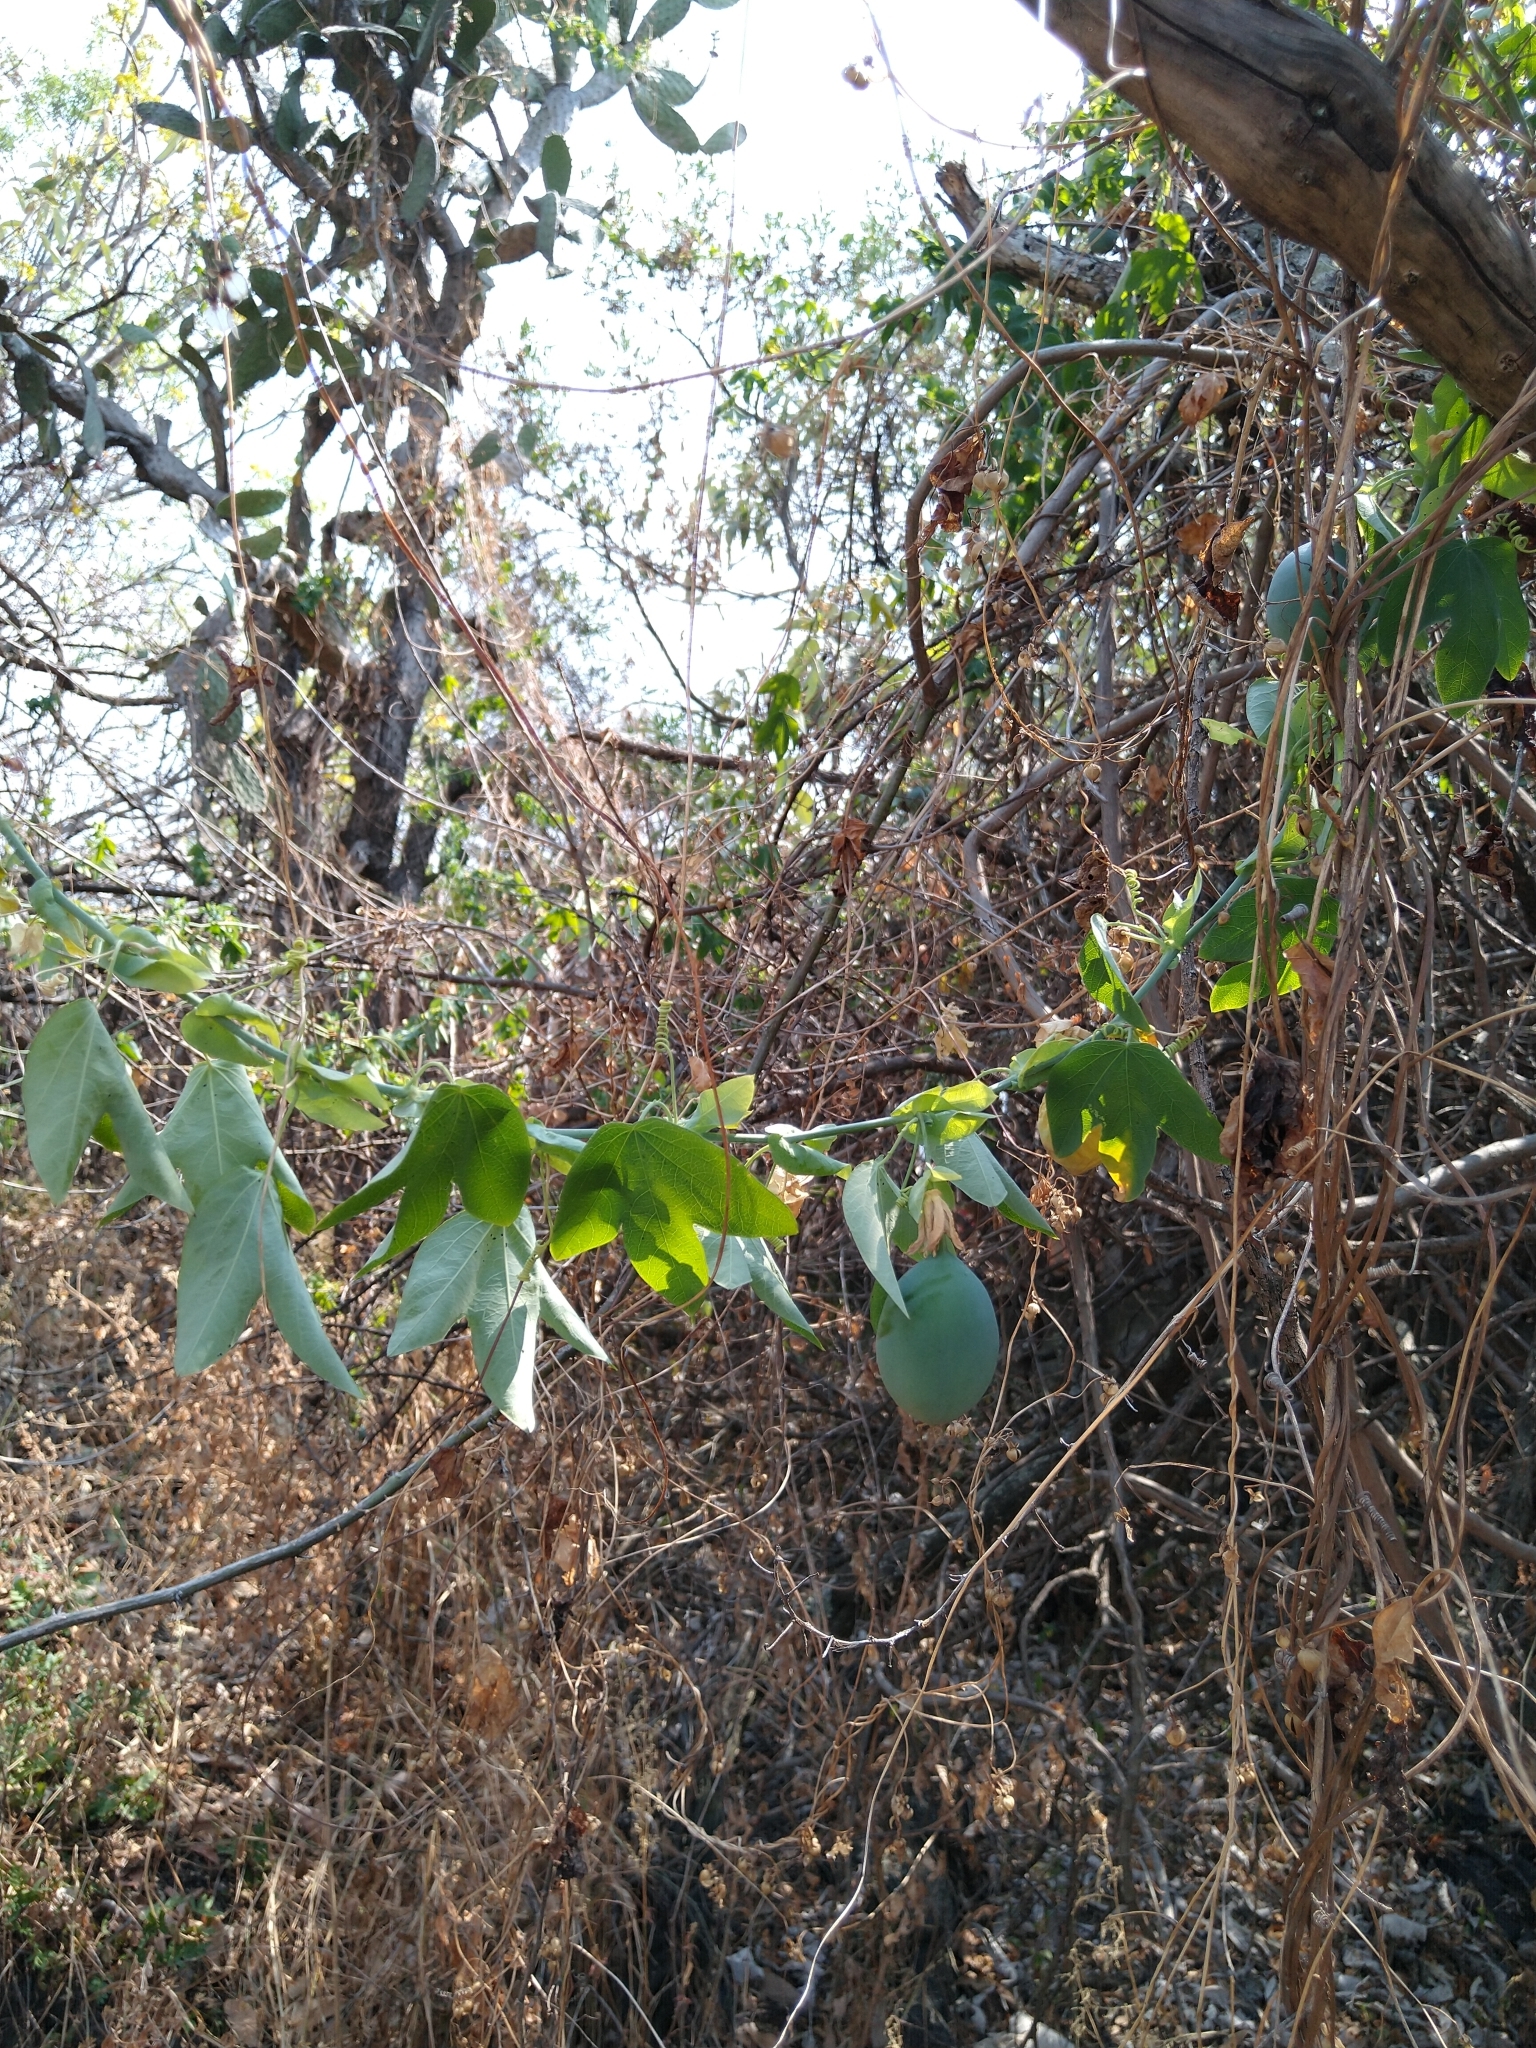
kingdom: Plantae
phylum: Tracheophyta
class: Magnoliopsida
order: Malpighiales
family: Passifloraceae
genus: Passiflora
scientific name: Passiflora subpeltata
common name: White passionflower
